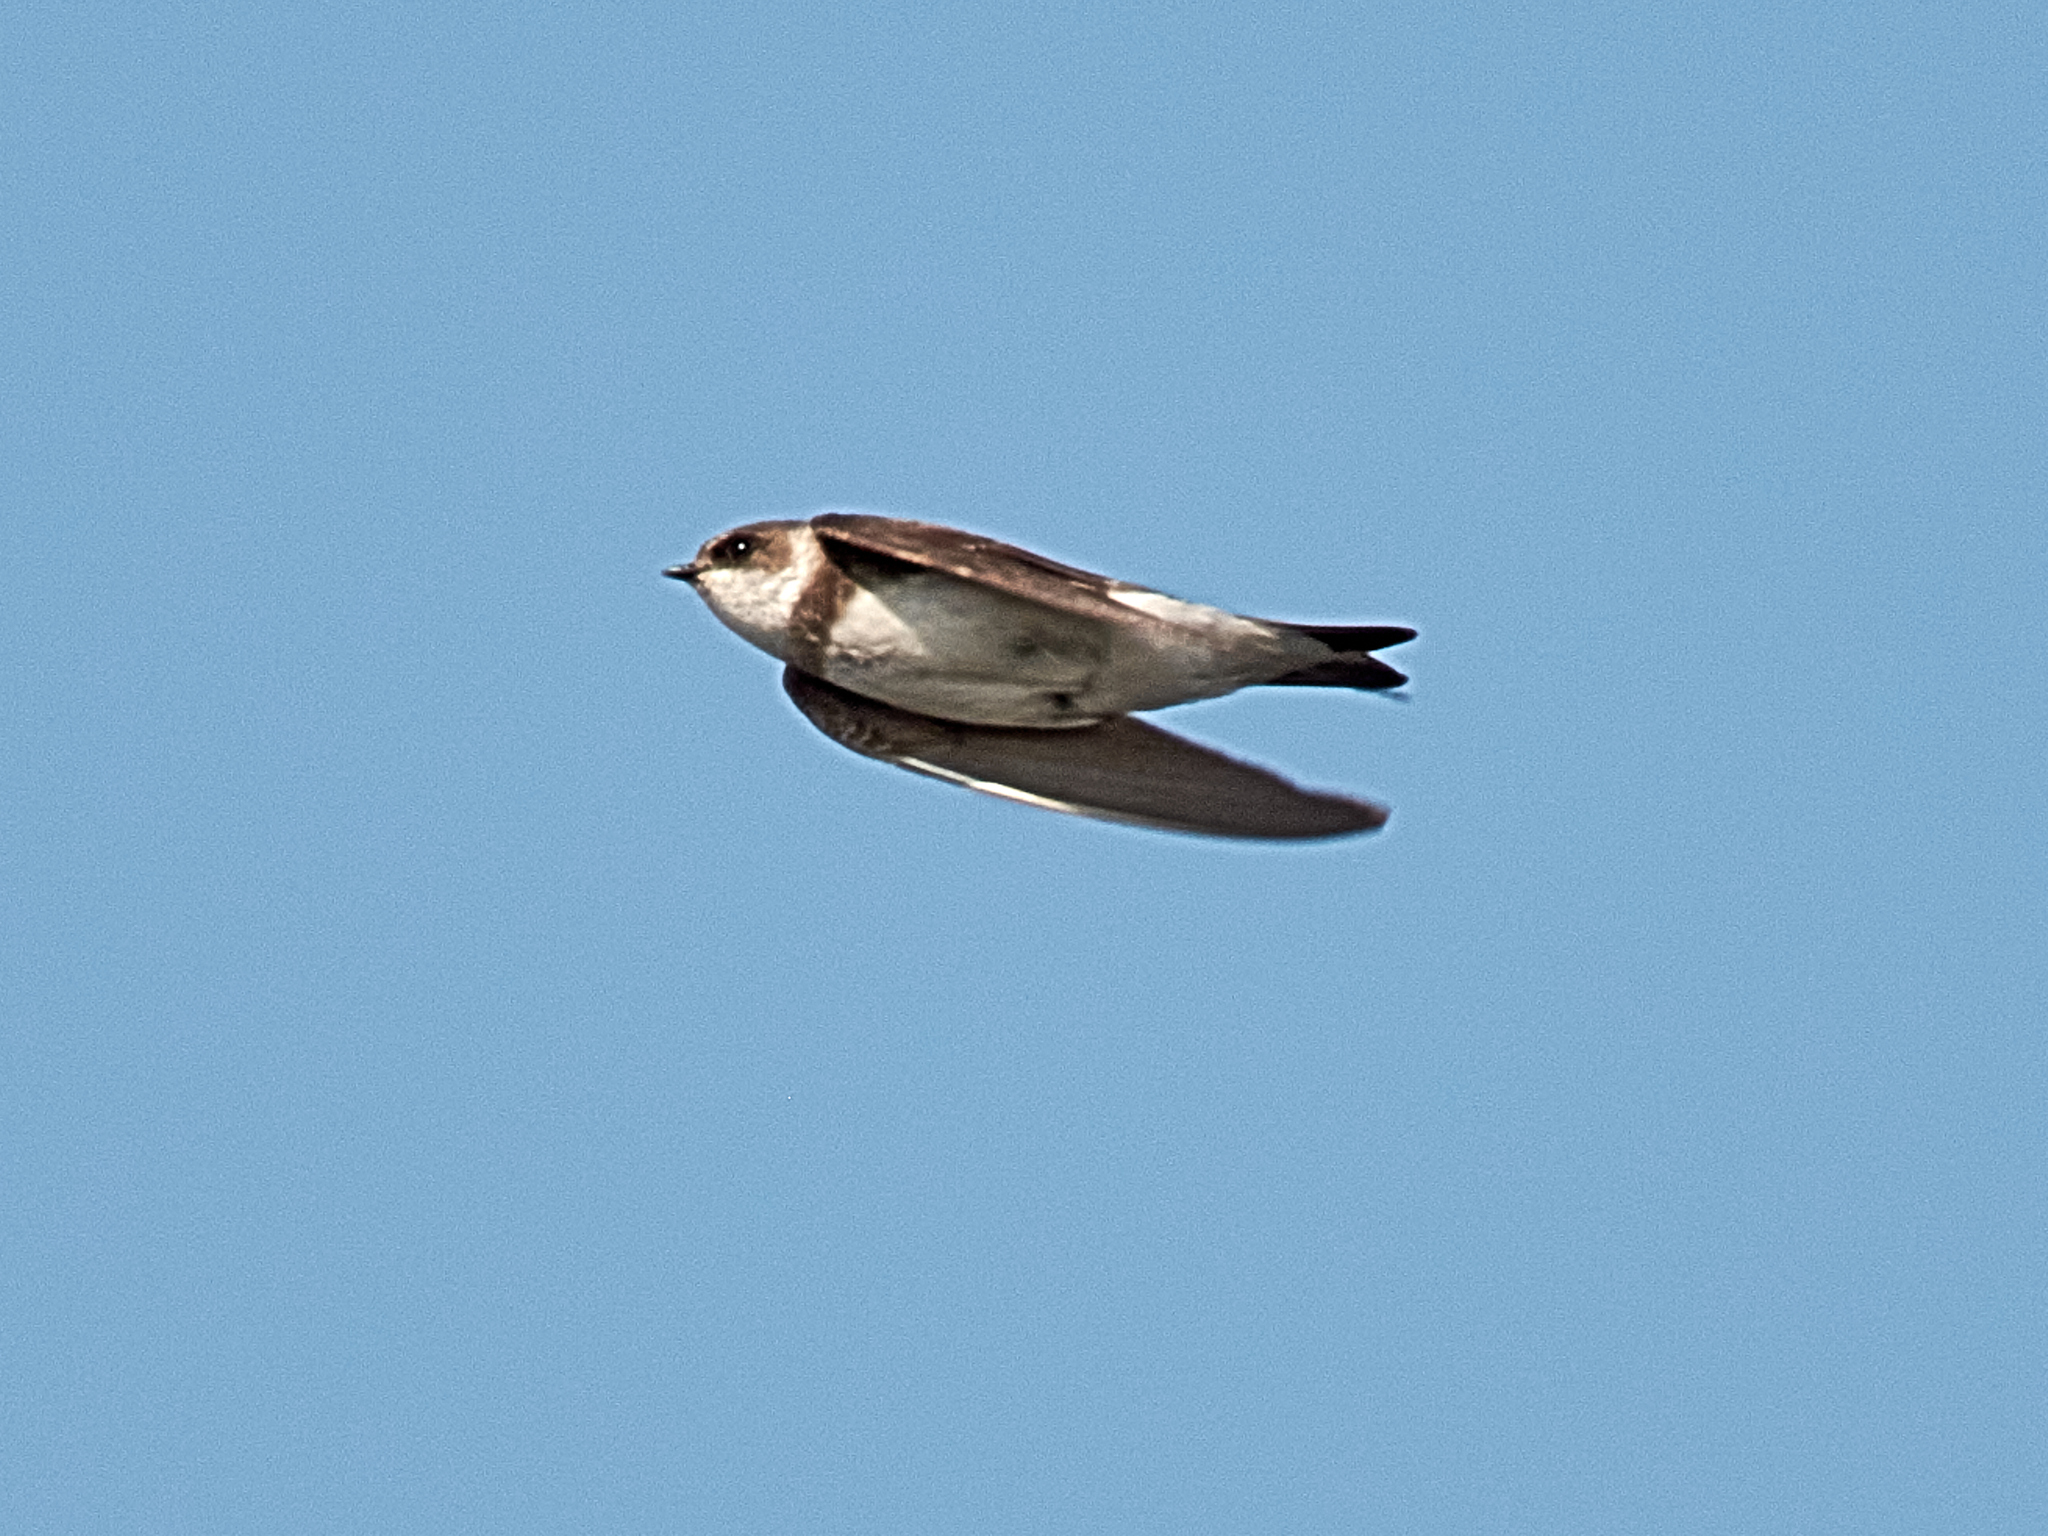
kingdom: Animalia
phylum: Chordata
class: Aves
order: Passeriformes
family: Hirundinidae
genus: Riparia
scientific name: Riparia riparia
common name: Sand martin
